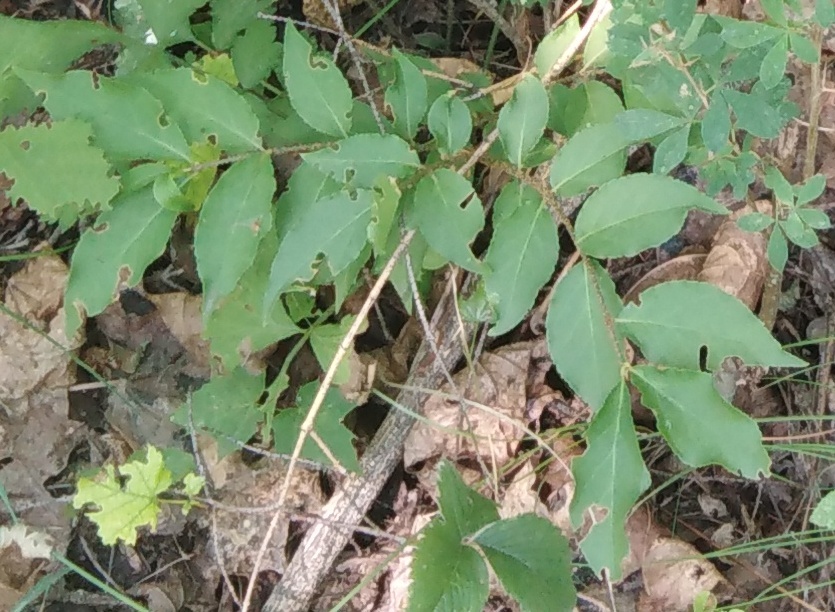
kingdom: Plantae
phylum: Tracheophyta
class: Magnoliopsida
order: Celastrales
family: Celastraceae
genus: Euonymus
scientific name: Euonymus verrucosus
